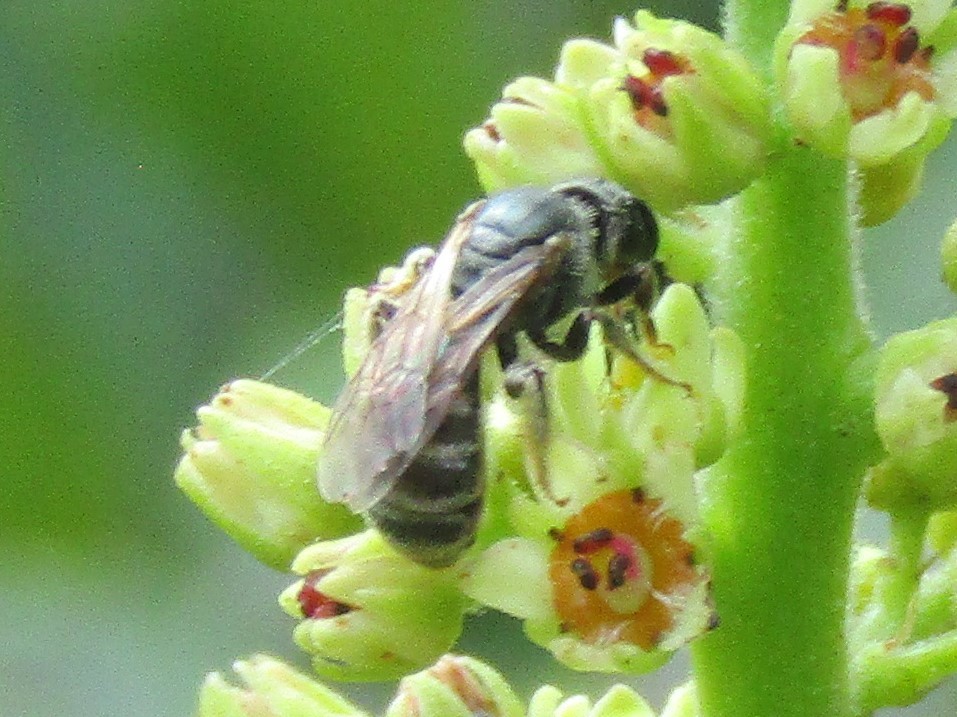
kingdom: Animalia
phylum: Arthropoda
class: Insecta
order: Hymenoptera
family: Halictidae
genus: Halictus
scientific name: Halictus confusus
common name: Southern bronze furrow bee
